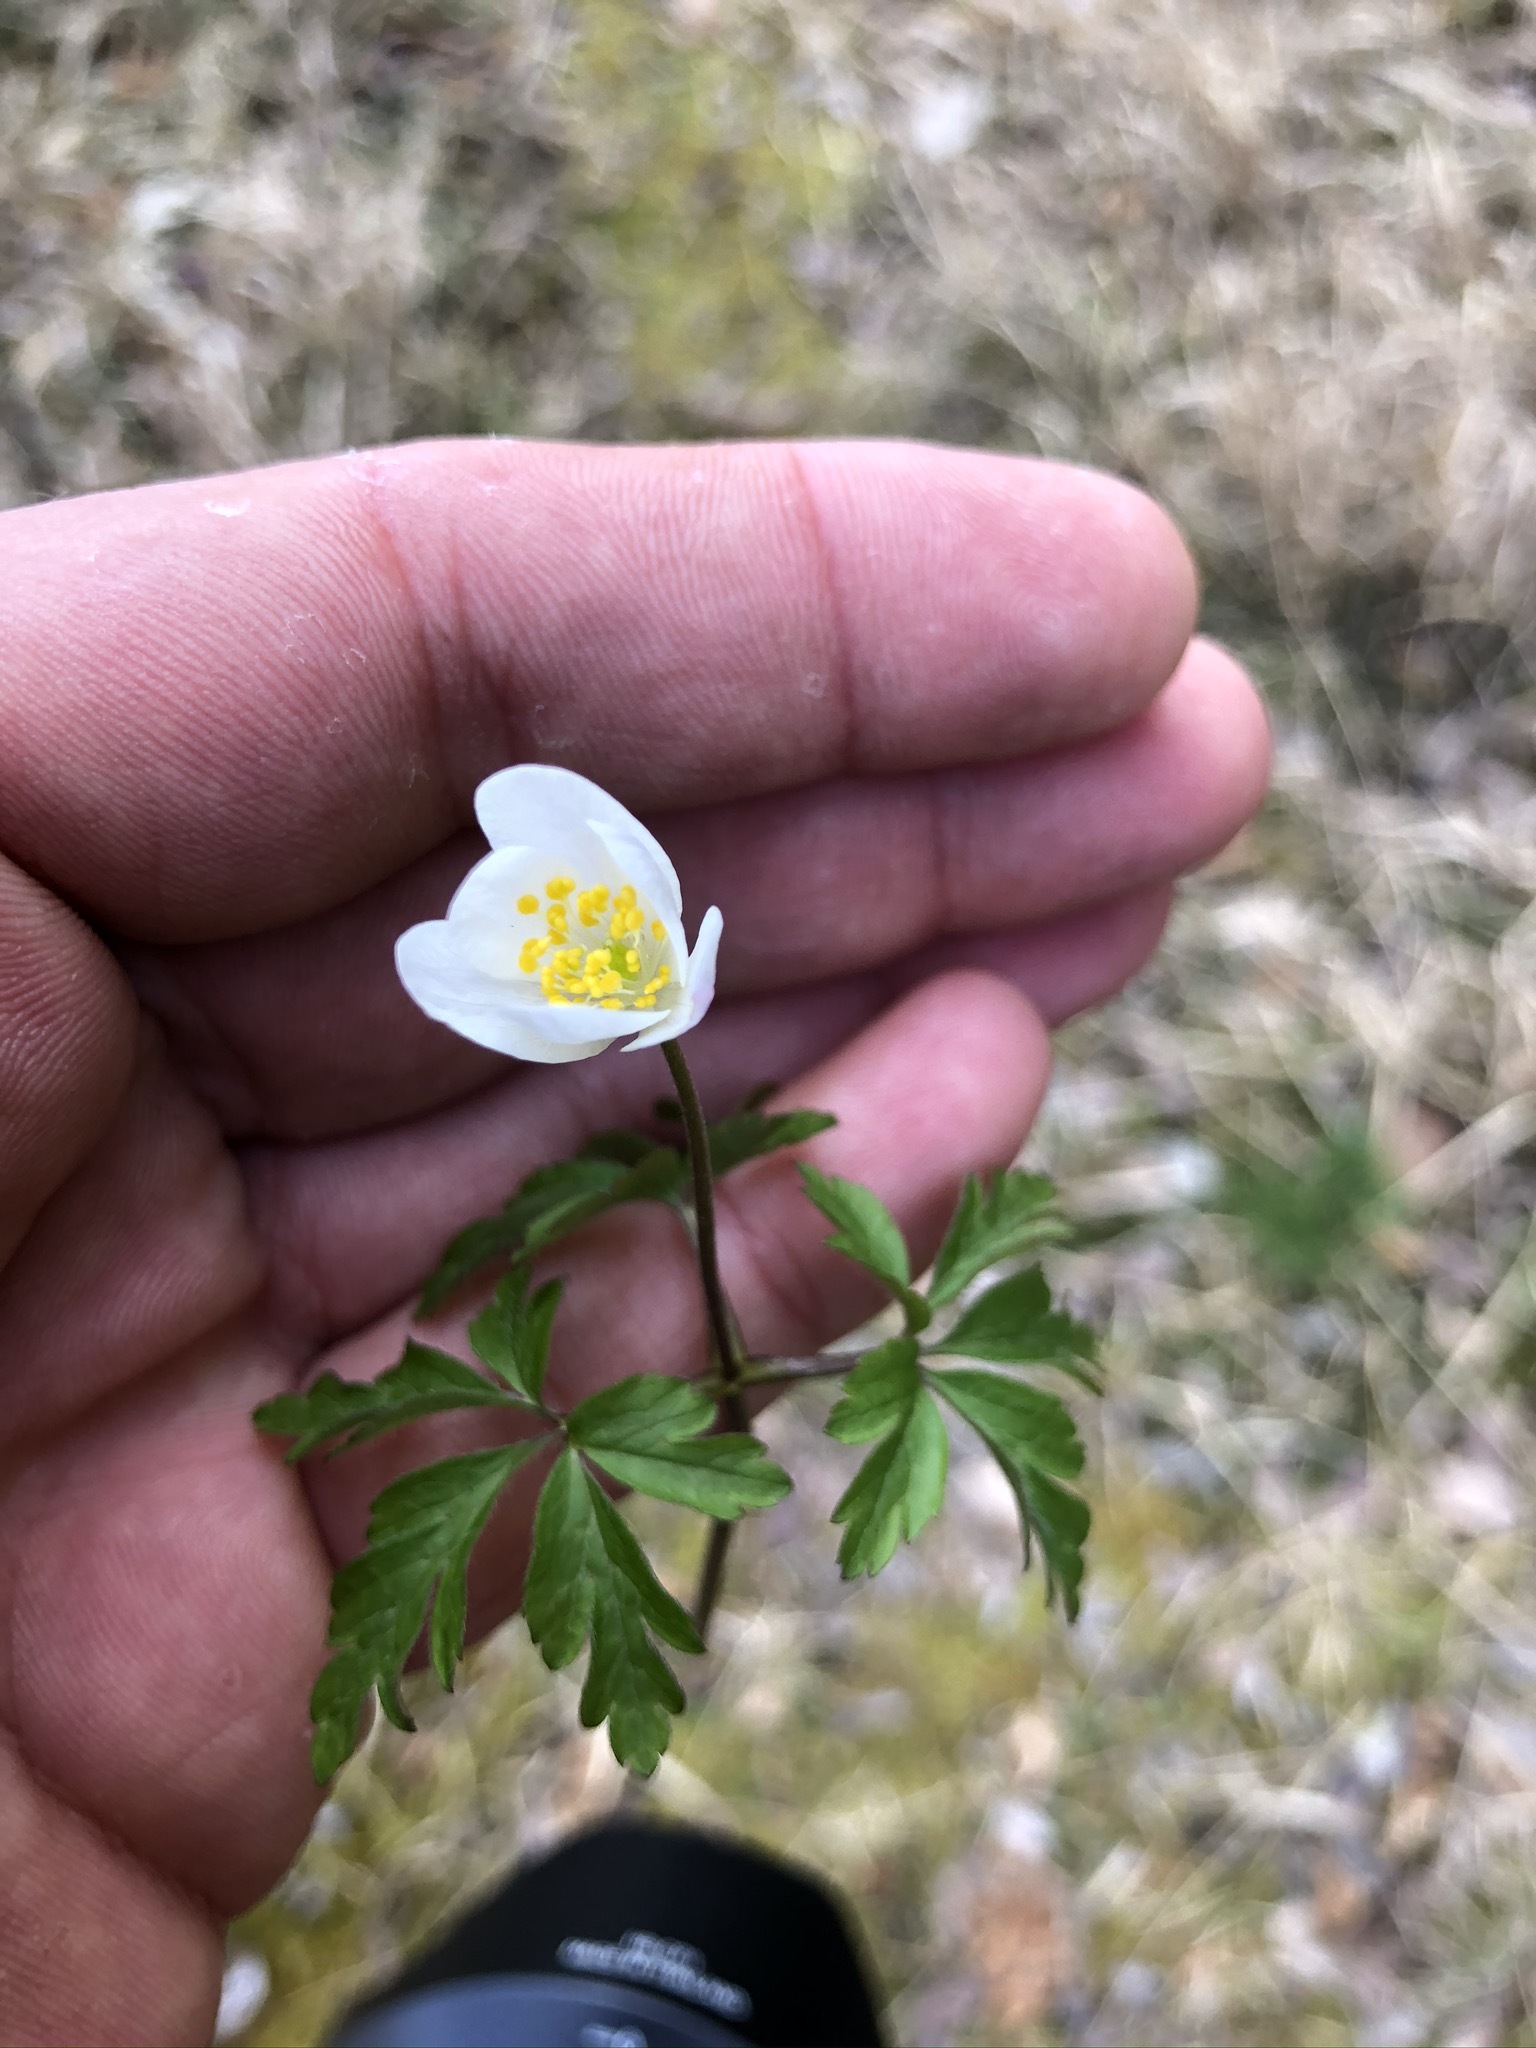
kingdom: Plantae
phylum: Tracheophyta
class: Magnoliopsida
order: Ranunculales
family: Ranunculaceae
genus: Anemone
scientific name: Anemone nemorosa
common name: Wood anemone
